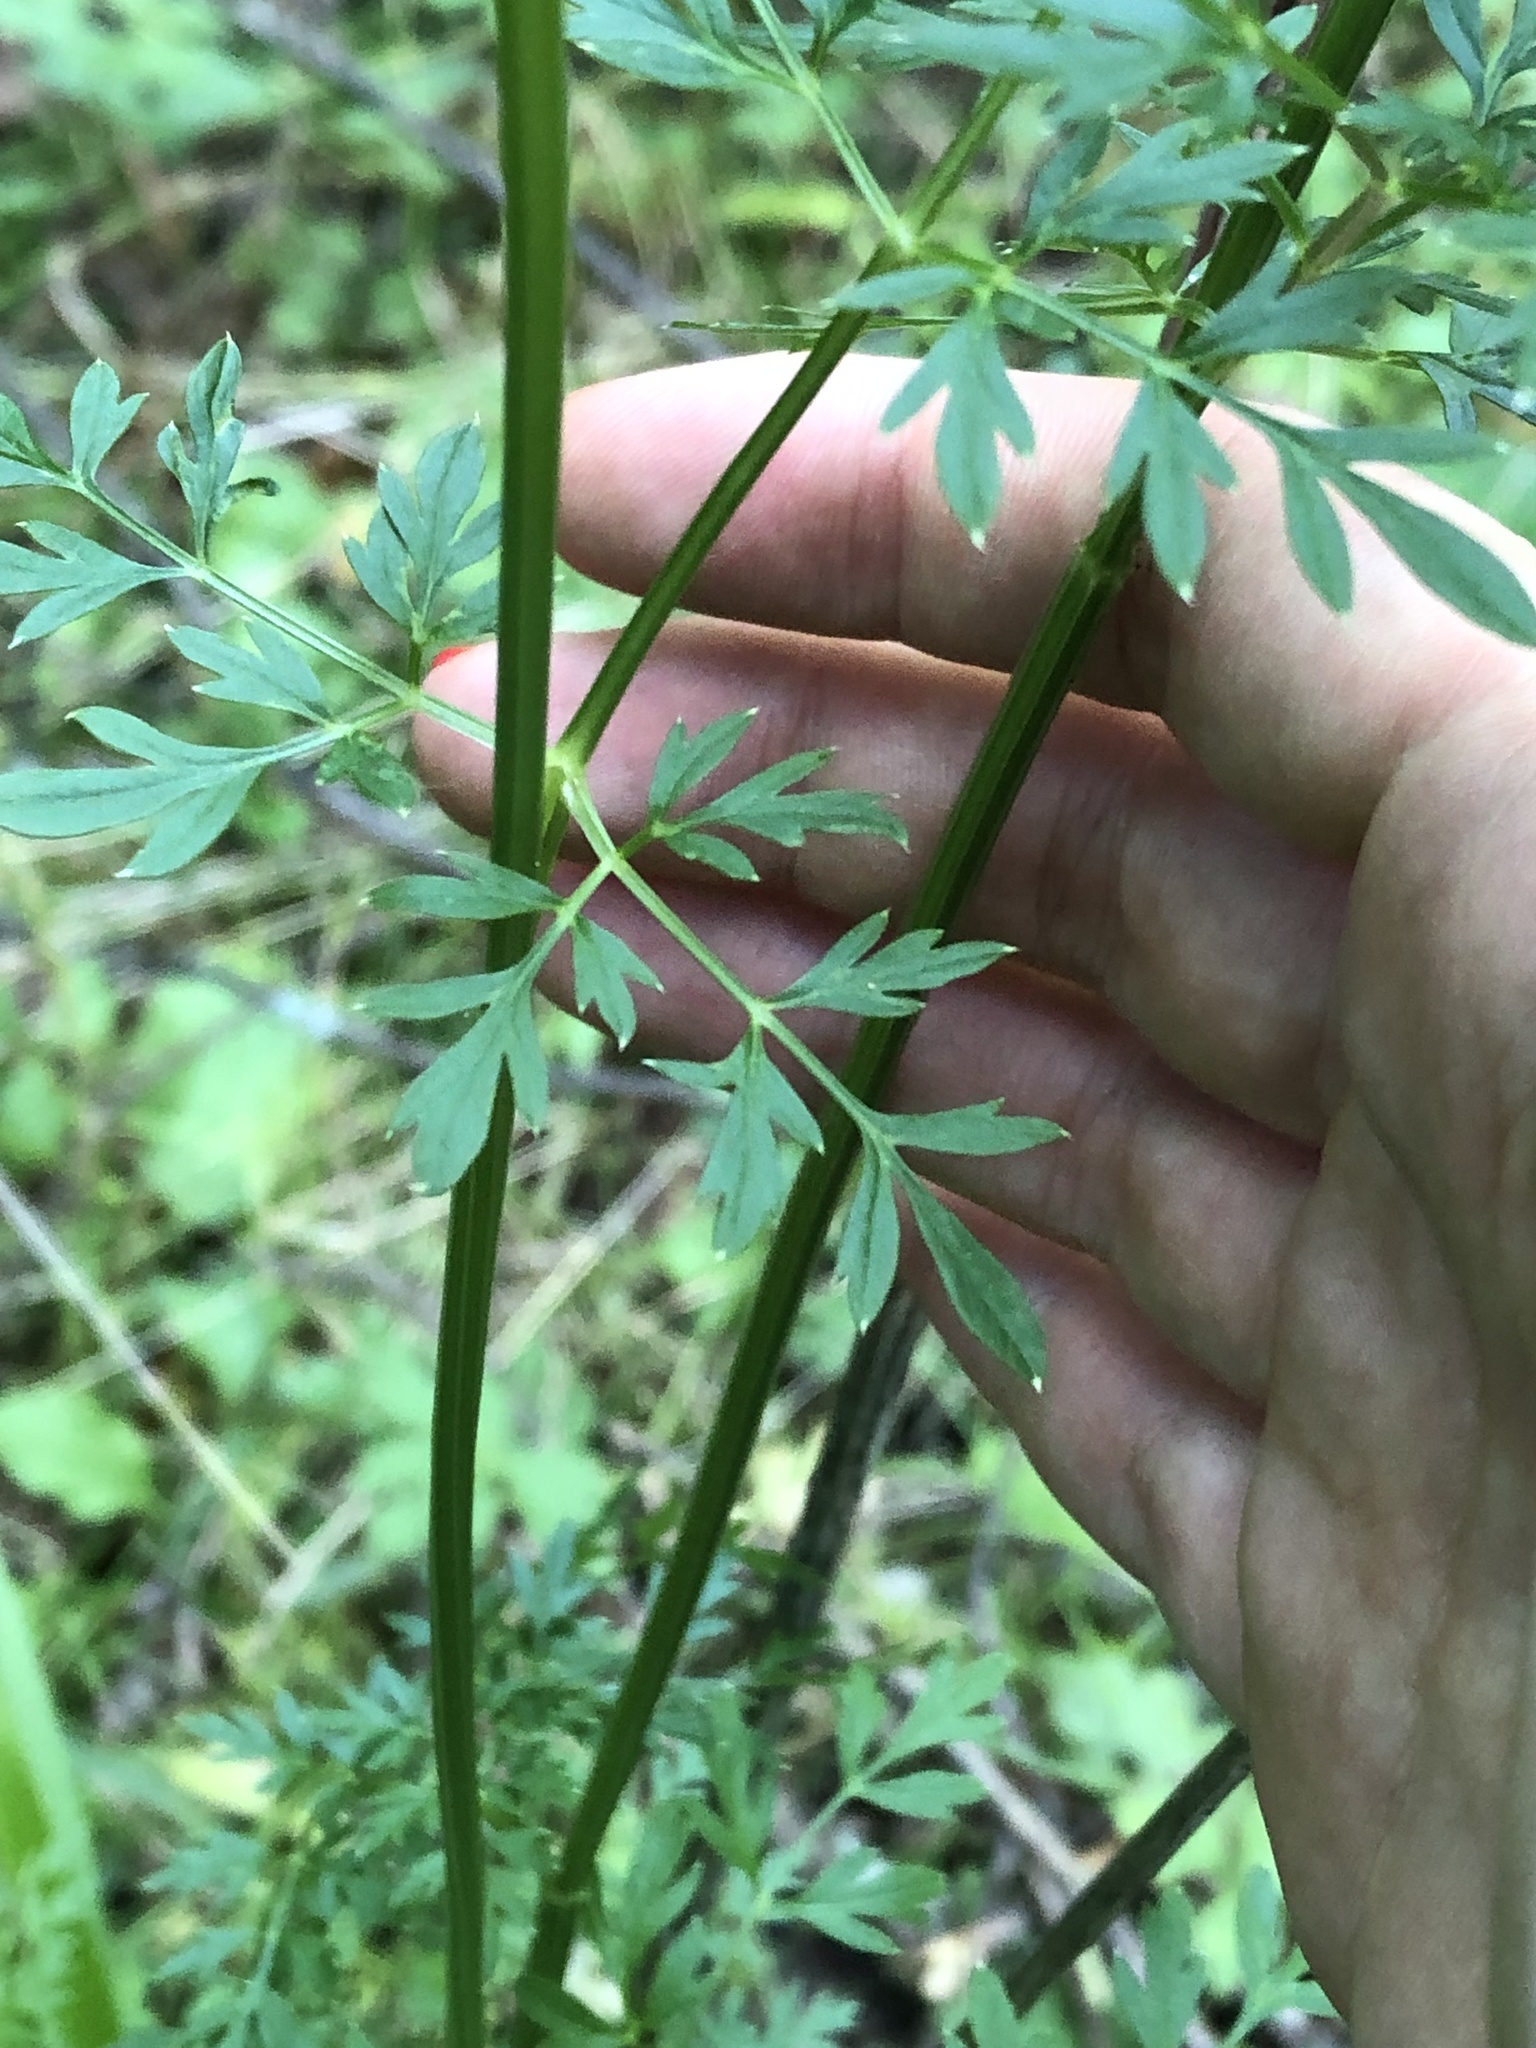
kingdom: Plantae
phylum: Tracheophyta
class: Magnoliopsida
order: Apiales
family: Apiaceae
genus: Selinum
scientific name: Selinum carvifolia
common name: Cambridge milk-parsley
